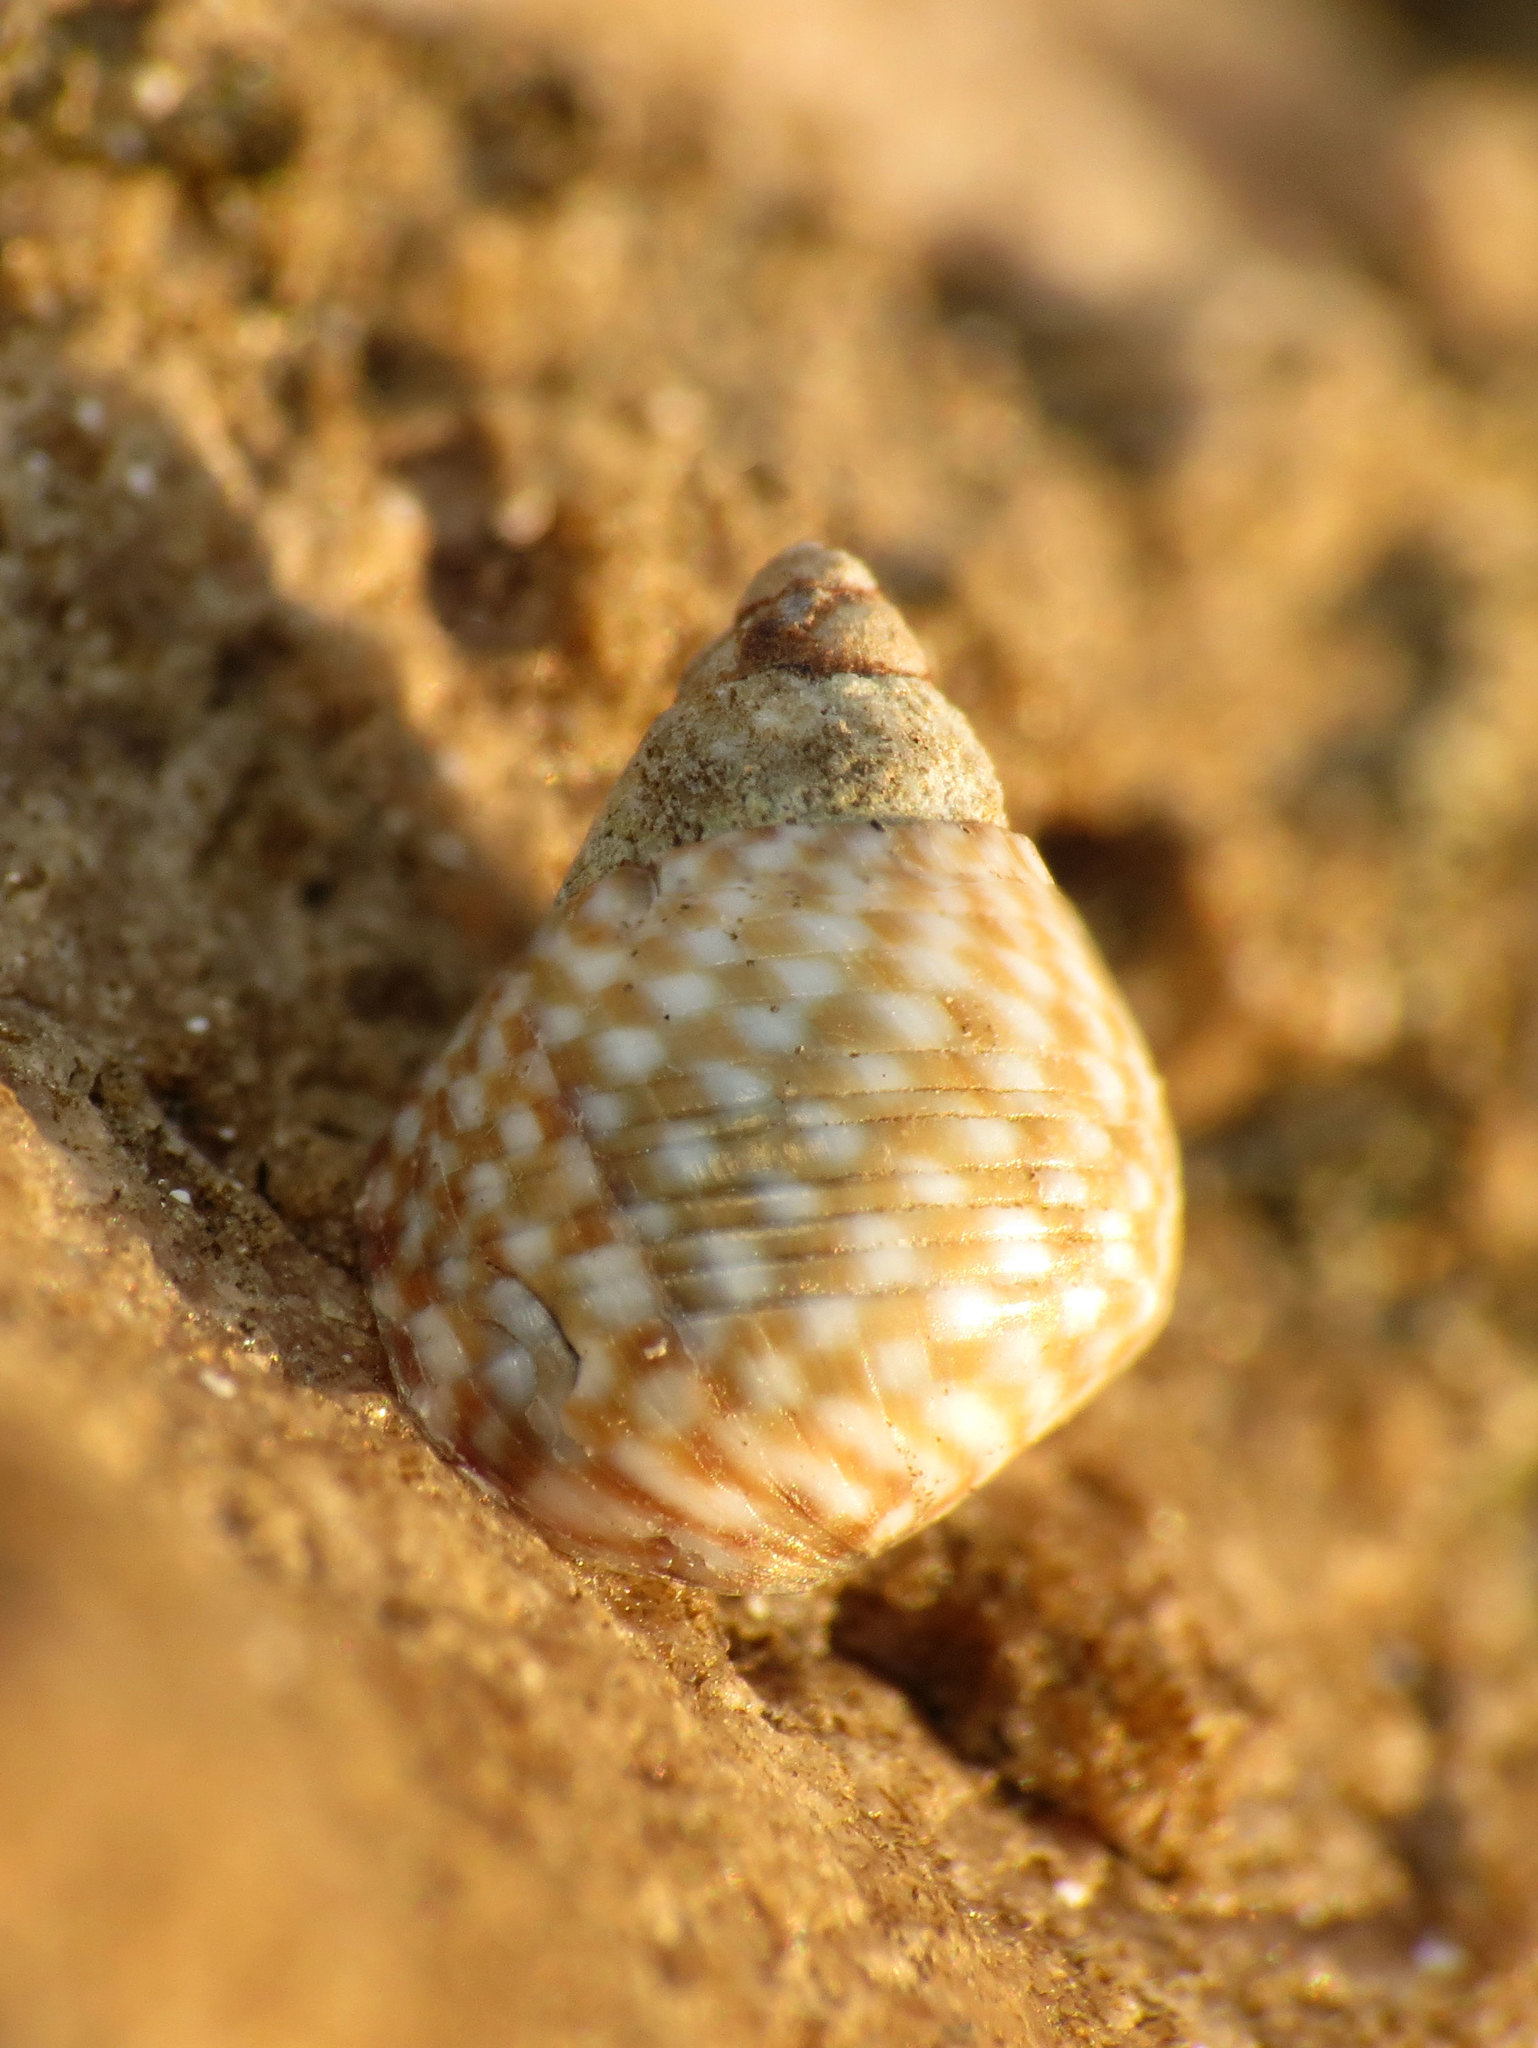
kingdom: Animalia
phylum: Mollusca
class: Gastropoda
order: Littorinimorpha
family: Littorinidae
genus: Echinolittorina
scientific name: Echinolittorina punctata
